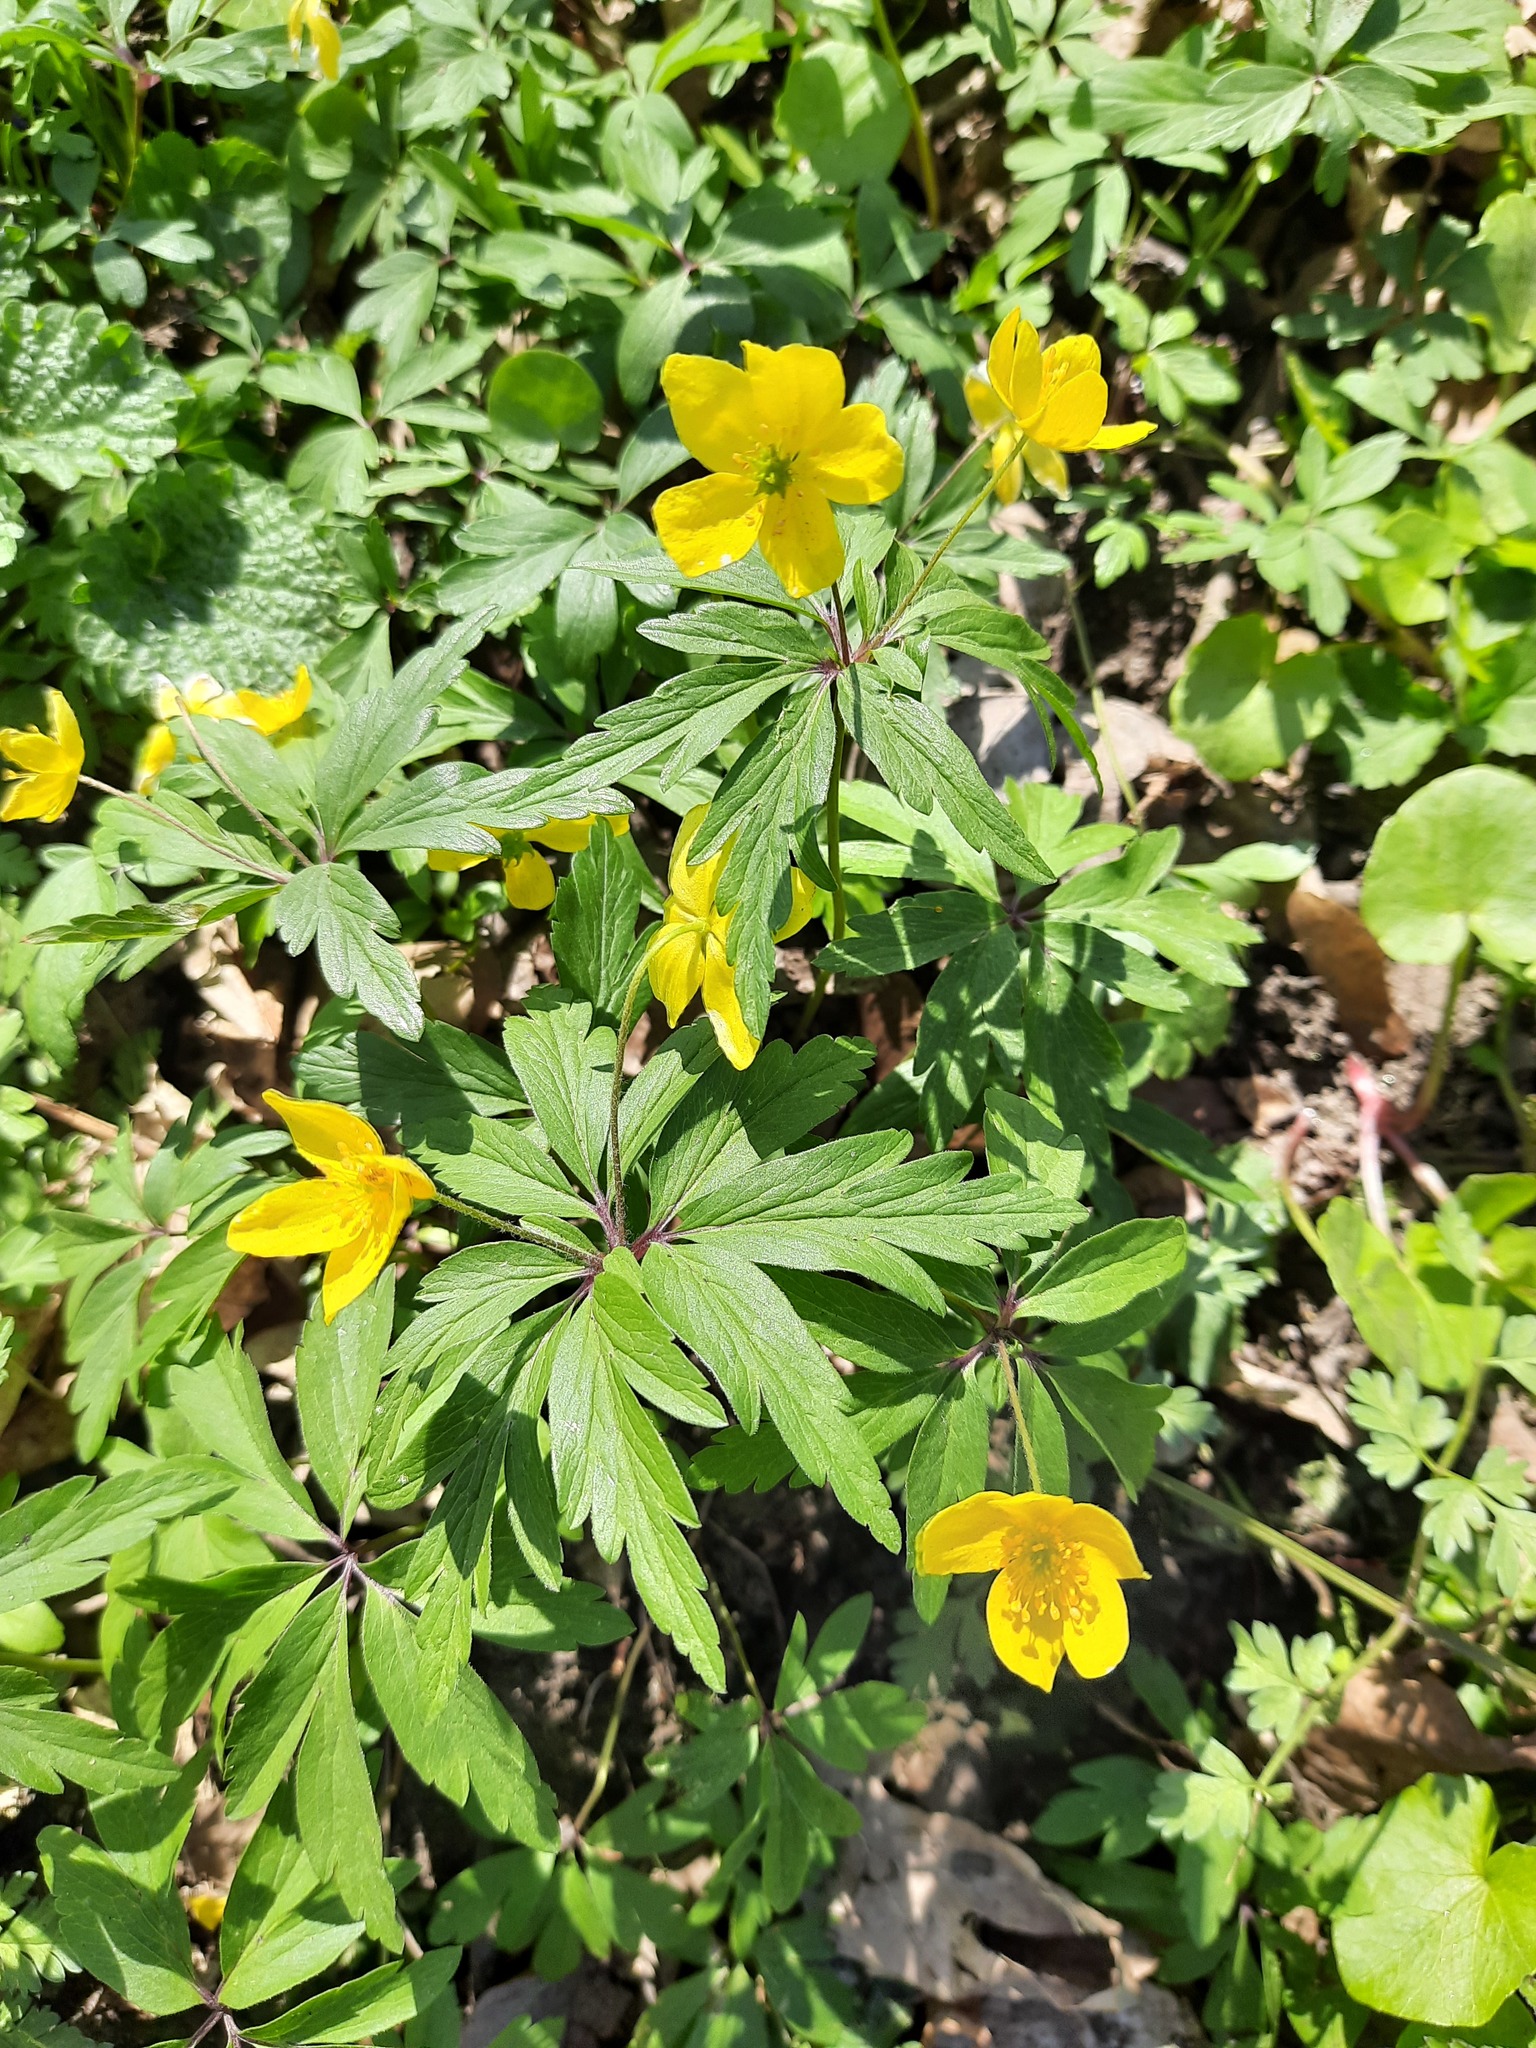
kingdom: Plantae
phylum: Tracheophyta
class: Magnoliopsida
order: Ranunculales
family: Ranunculaceae
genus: Anemone
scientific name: Anemone ranunculoides
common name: Yellow anemone
